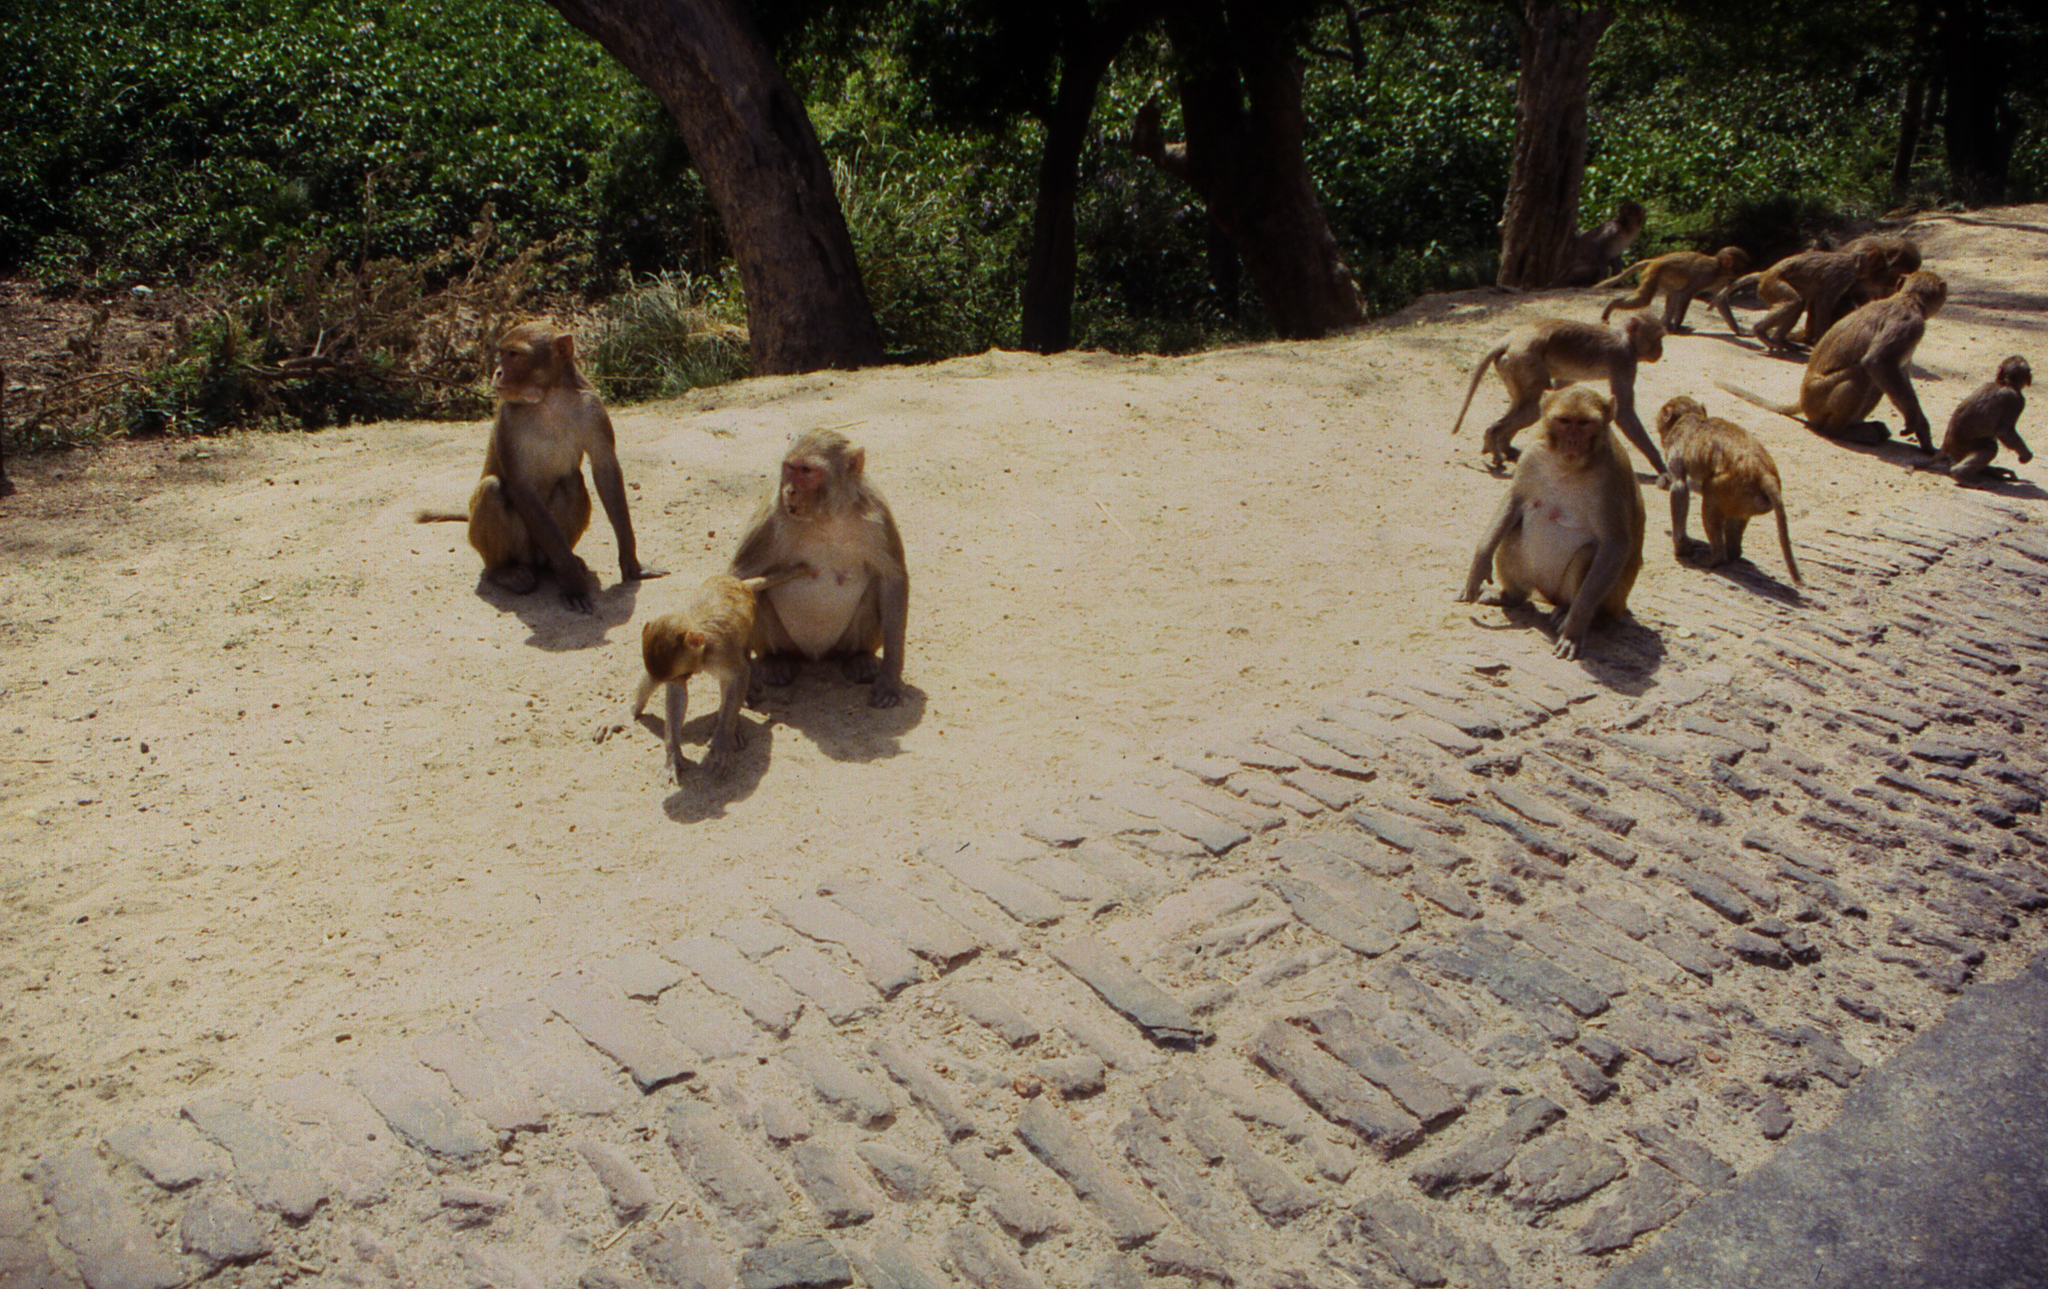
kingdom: Animalia
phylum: Chordata
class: Mammalia
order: Primates
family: Cercopithecidae
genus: Macaca
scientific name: Macaca mulatta
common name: Rhesus monkey
